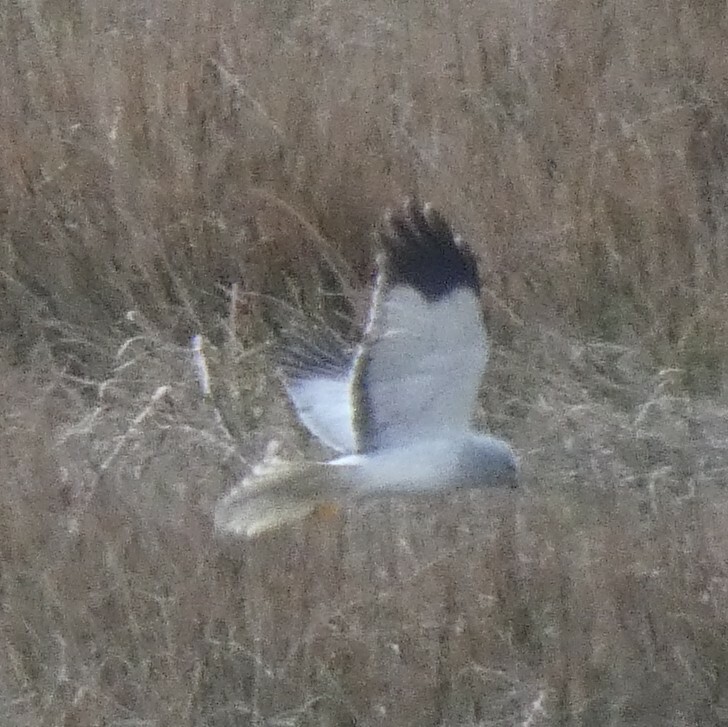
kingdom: Animalia
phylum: Chordata
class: Aves
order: Accipitriformes
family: Accipitridae
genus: Circus
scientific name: Circus cyaneus
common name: Hen harrier
